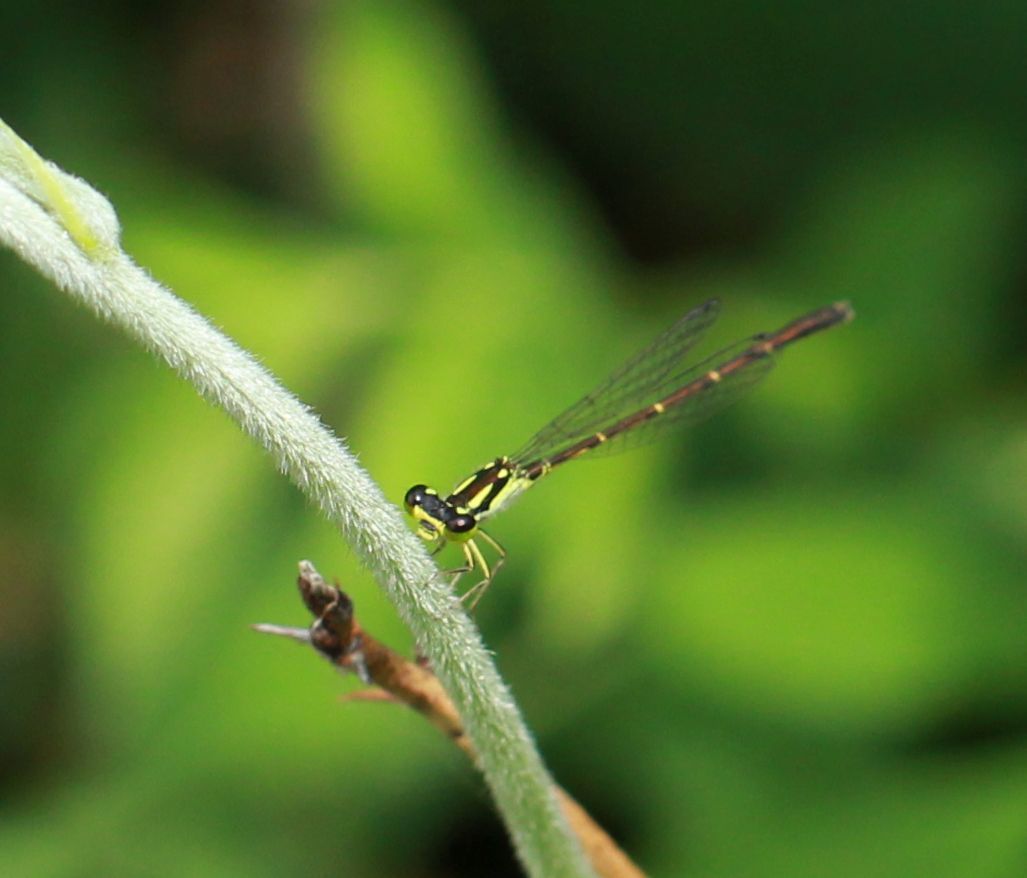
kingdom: Animalia
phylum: Arthropoda
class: Insecta
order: Odonata
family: Coenagrionidae
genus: Ischnura
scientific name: Ischnura posita
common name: Fragile forktail
